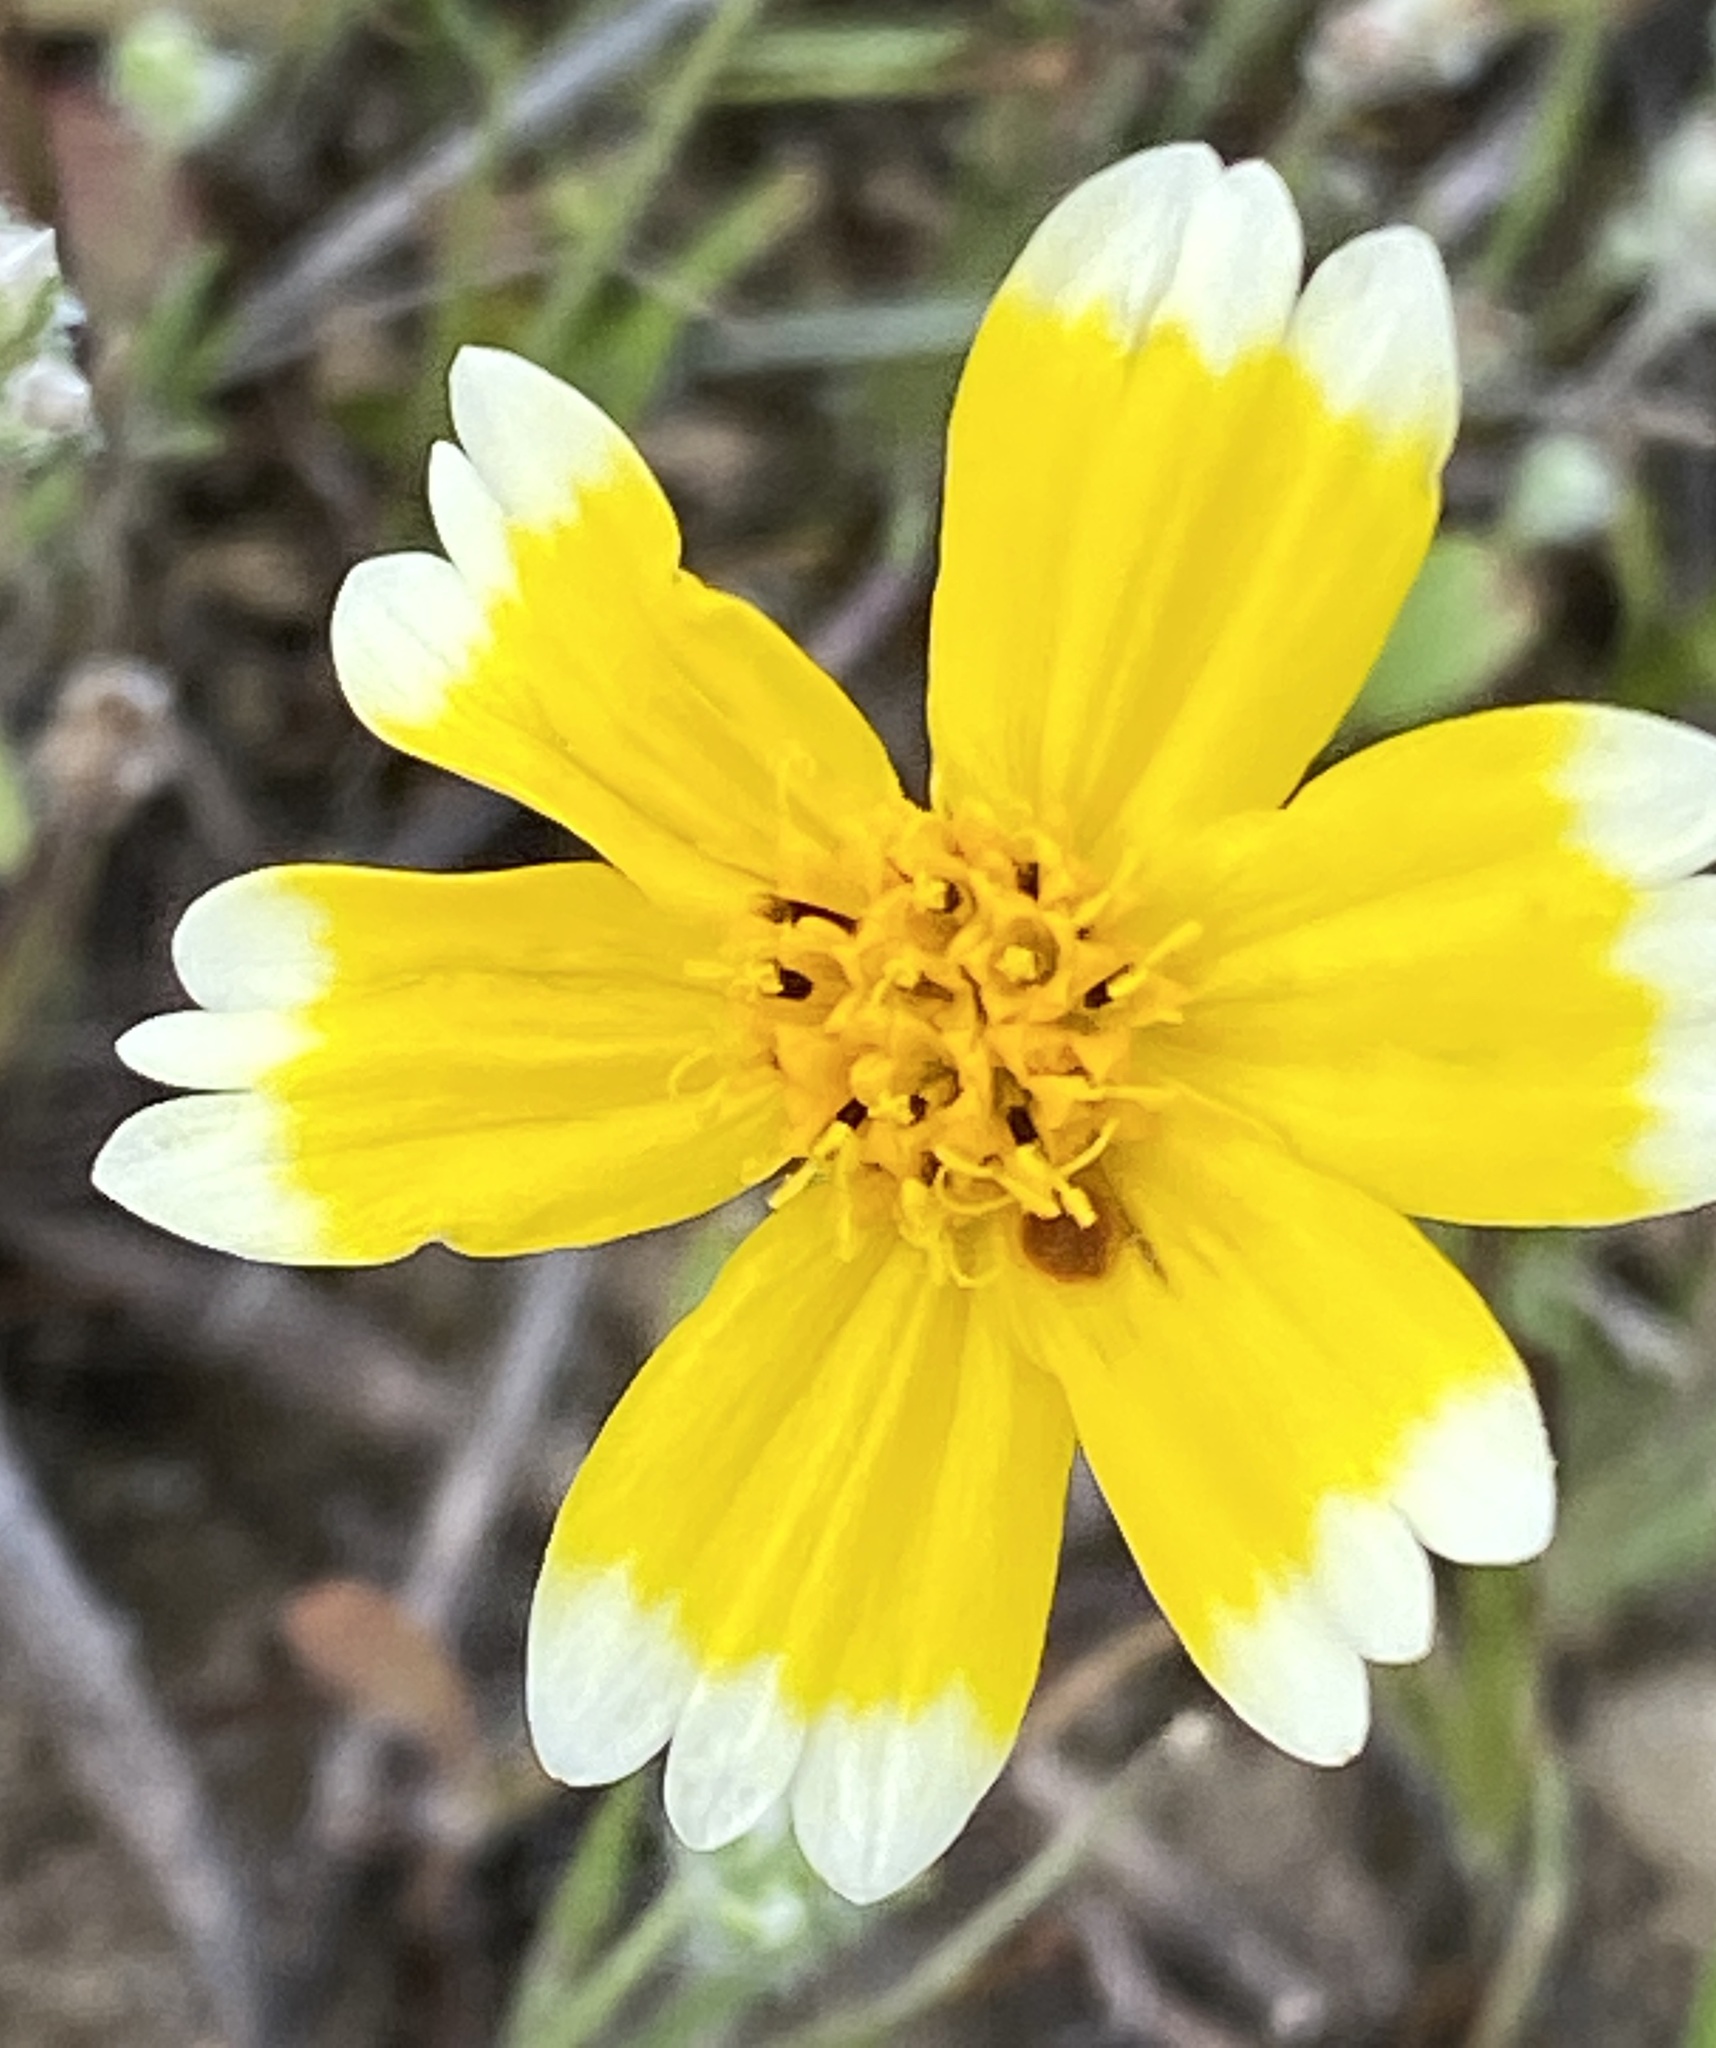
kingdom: Plantae
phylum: Tracheophyta
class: Magnoliopsida
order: Asterales
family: Asteraceae
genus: Layia
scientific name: Layia platyglossa
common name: Tidy-tips
